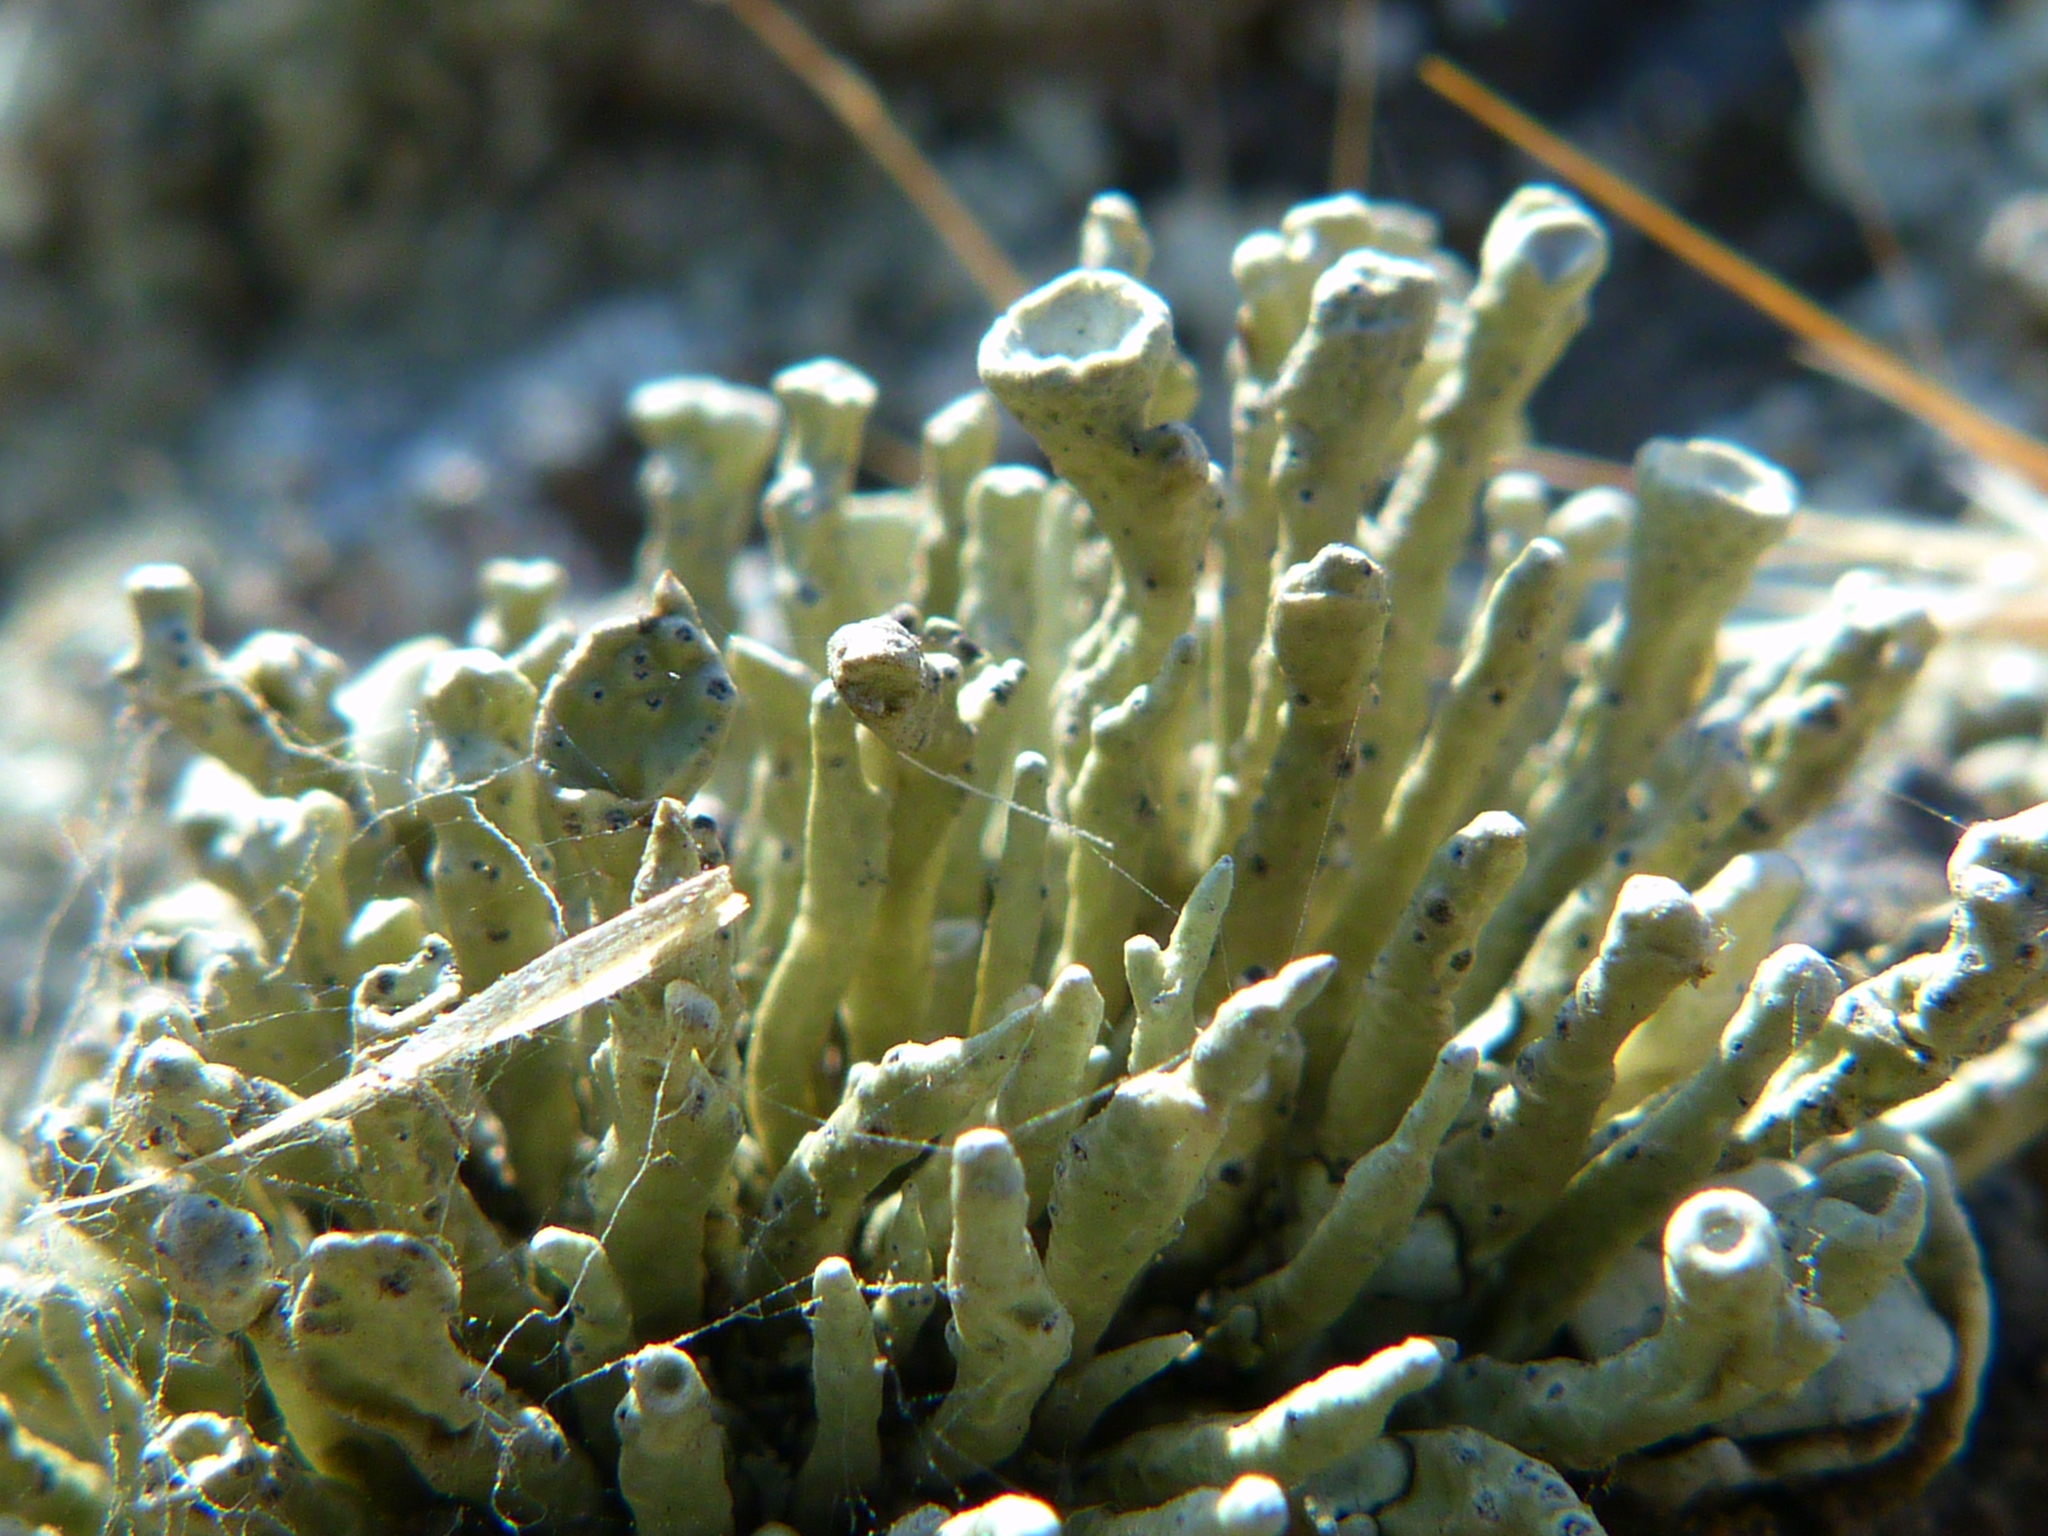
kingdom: Fungi
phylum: Ascomycota
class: Lecanoromycetes
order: Lecanorales
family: Ramalinaceae
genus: Niebla
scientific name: Niebla combeoides
